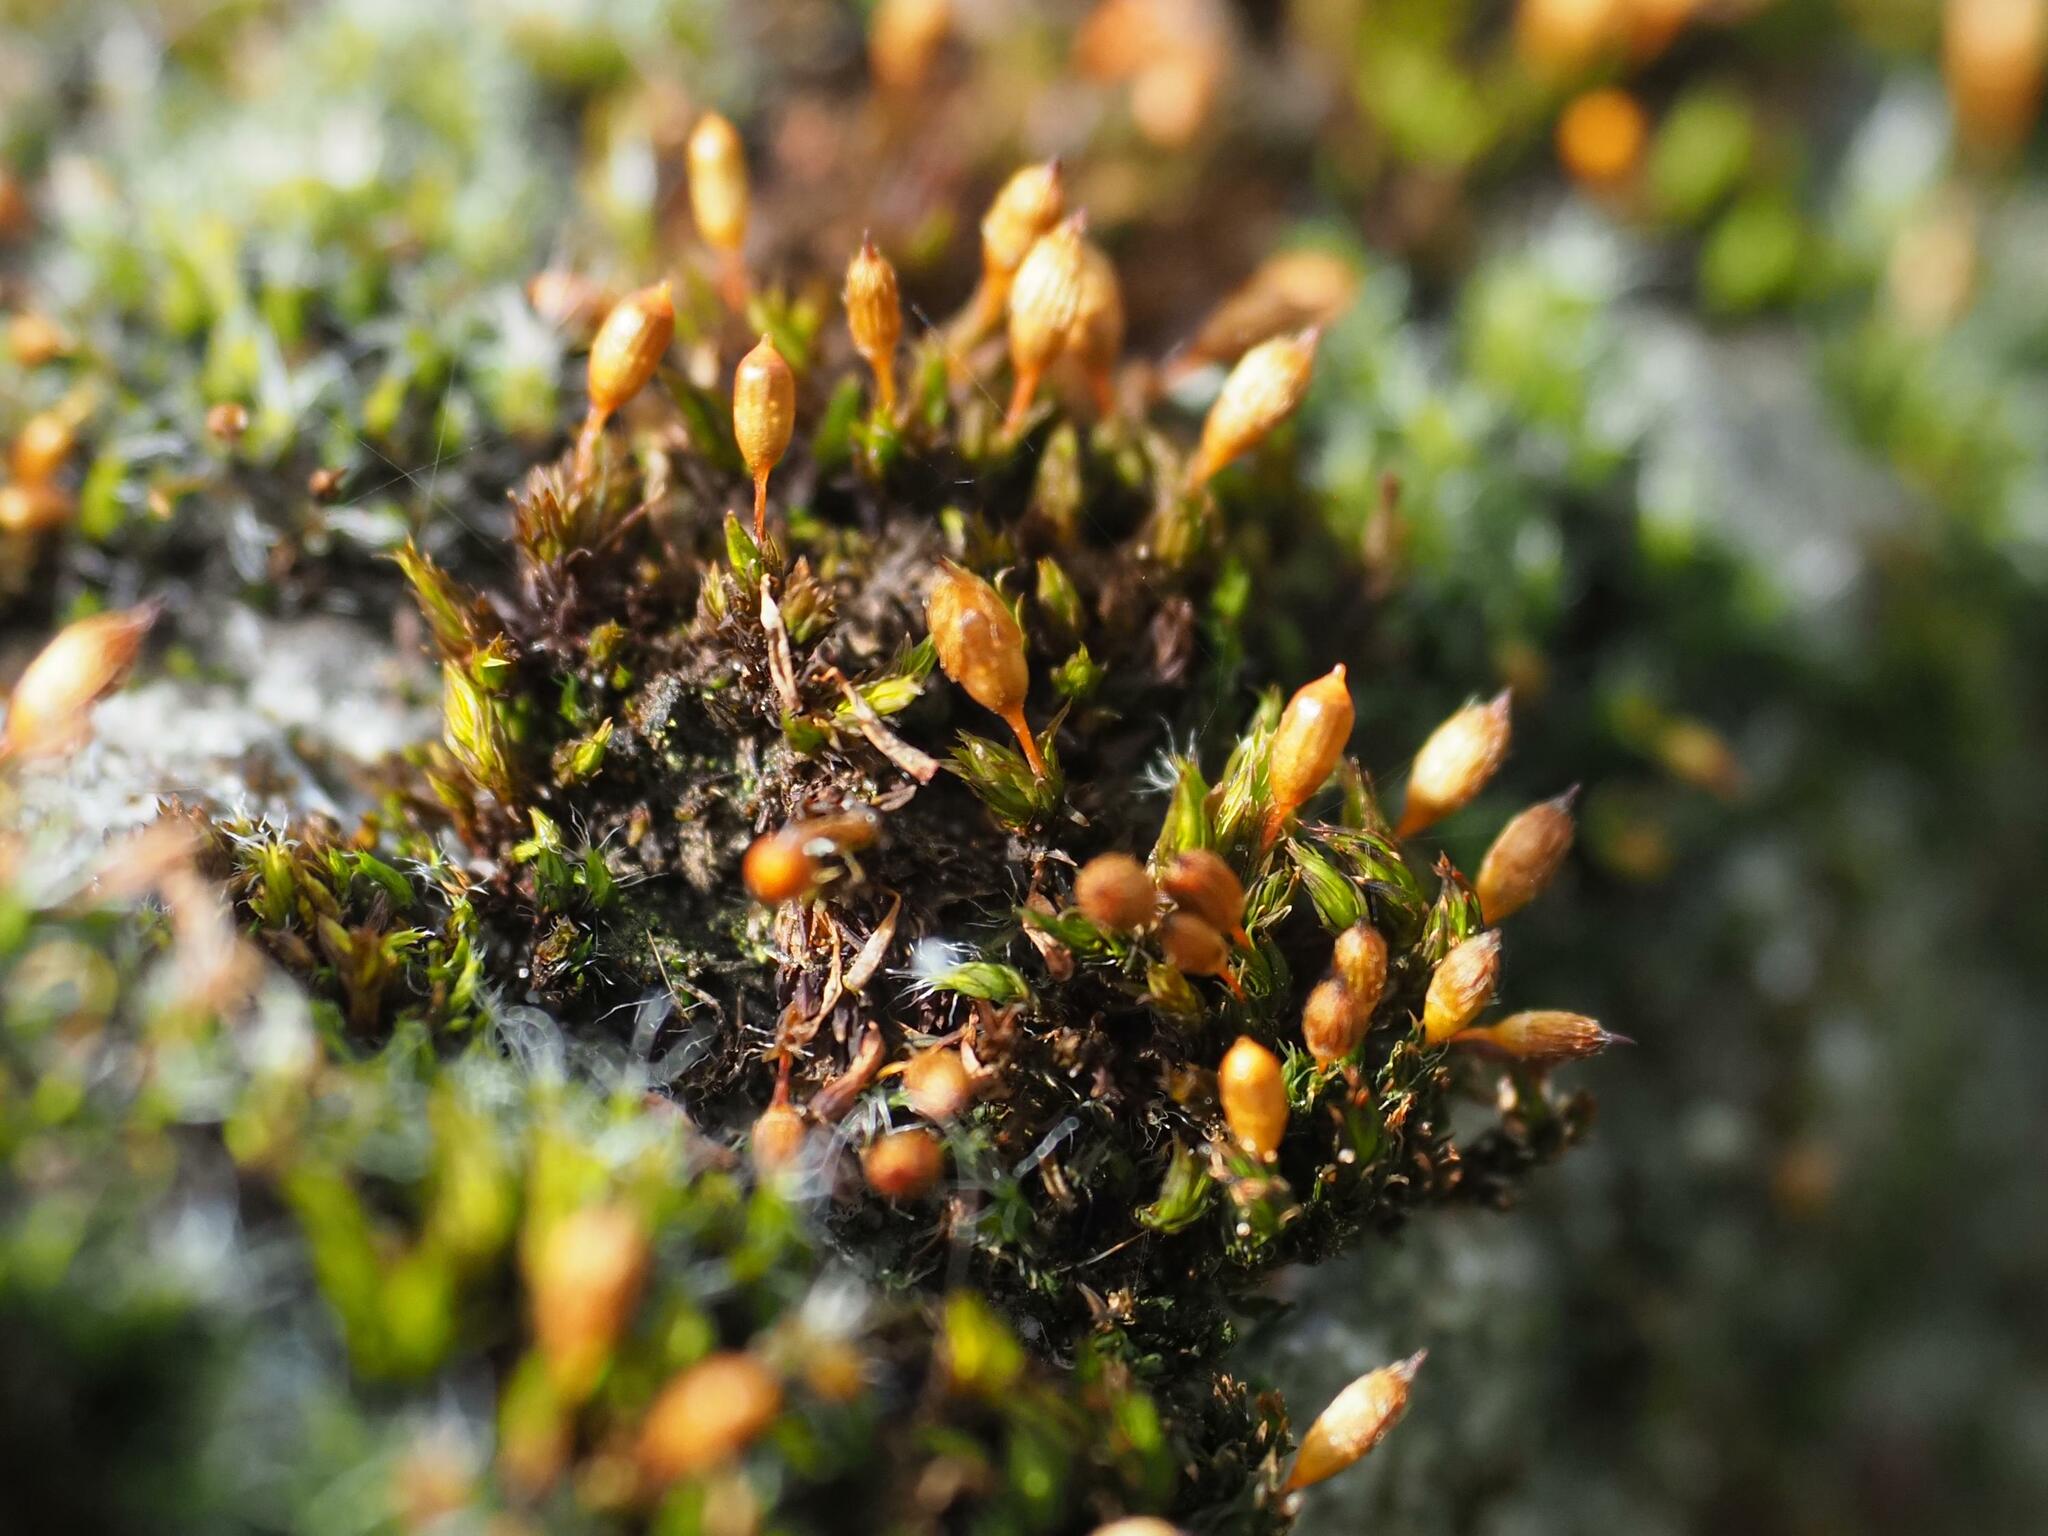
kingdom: Plantae
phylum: Bryophyta
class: Bryopsida
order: Orthotrichales
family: Orthotrichaceae
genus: Orthotrichum
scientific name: Orthotrichum anomalum
